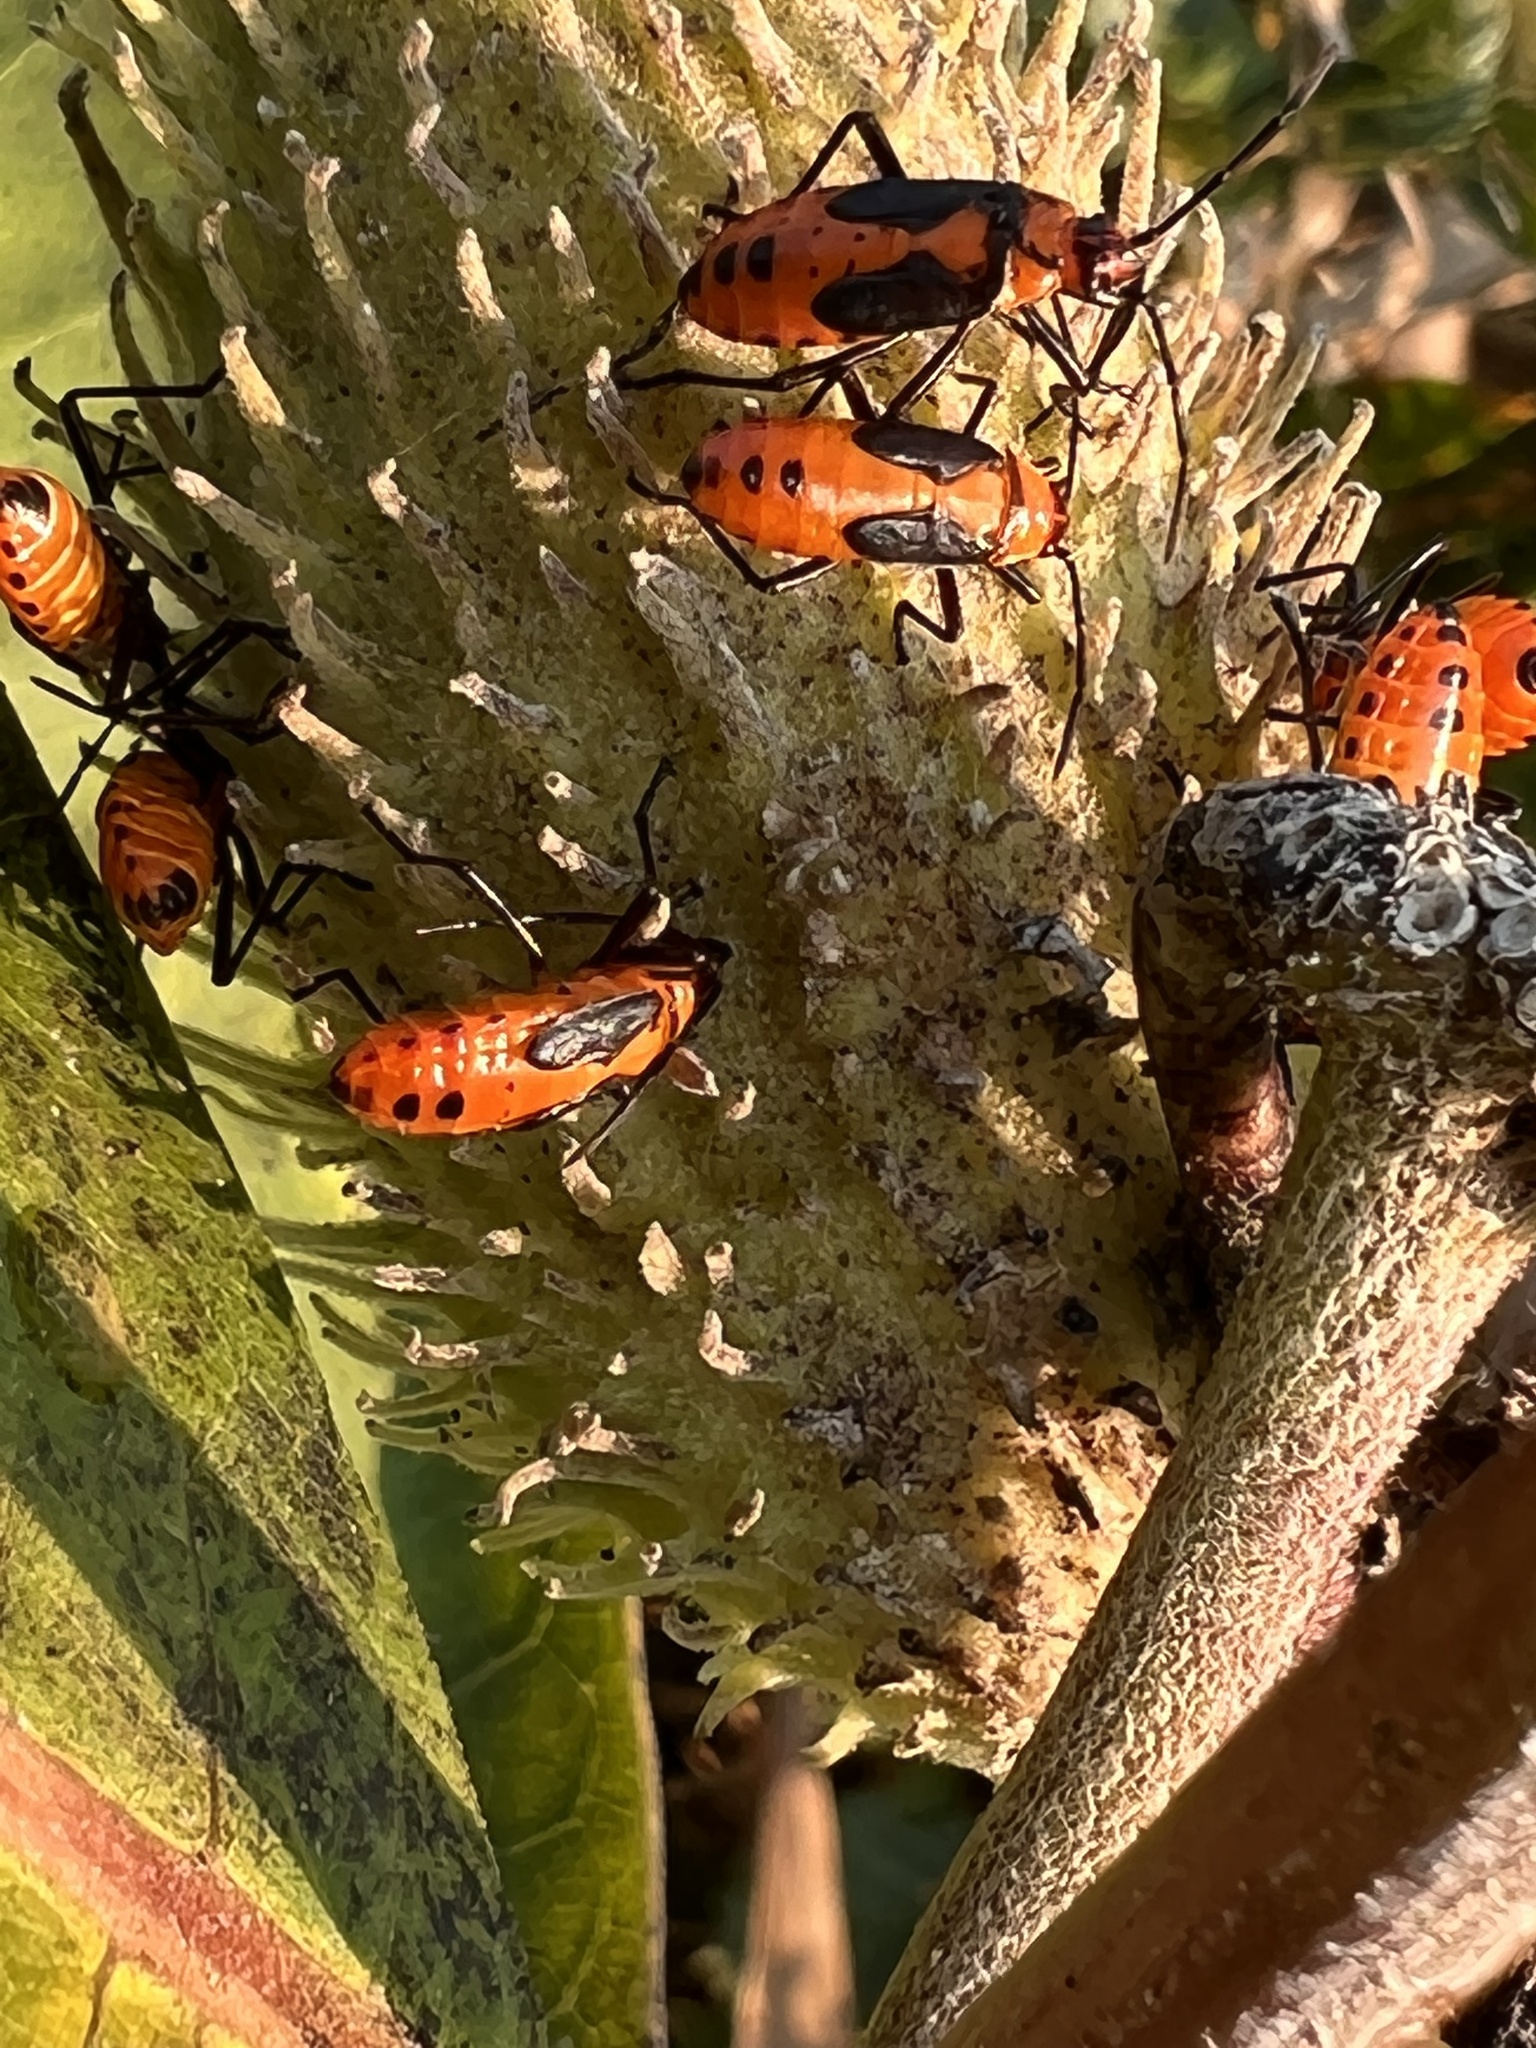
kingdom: Animalia
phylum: Arthropoda
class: Insecta
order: Hemiptera
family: Lygaeidae
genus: Oncopeltus
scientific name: Oncopeltus fasciatus
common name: Large milkweed bug
